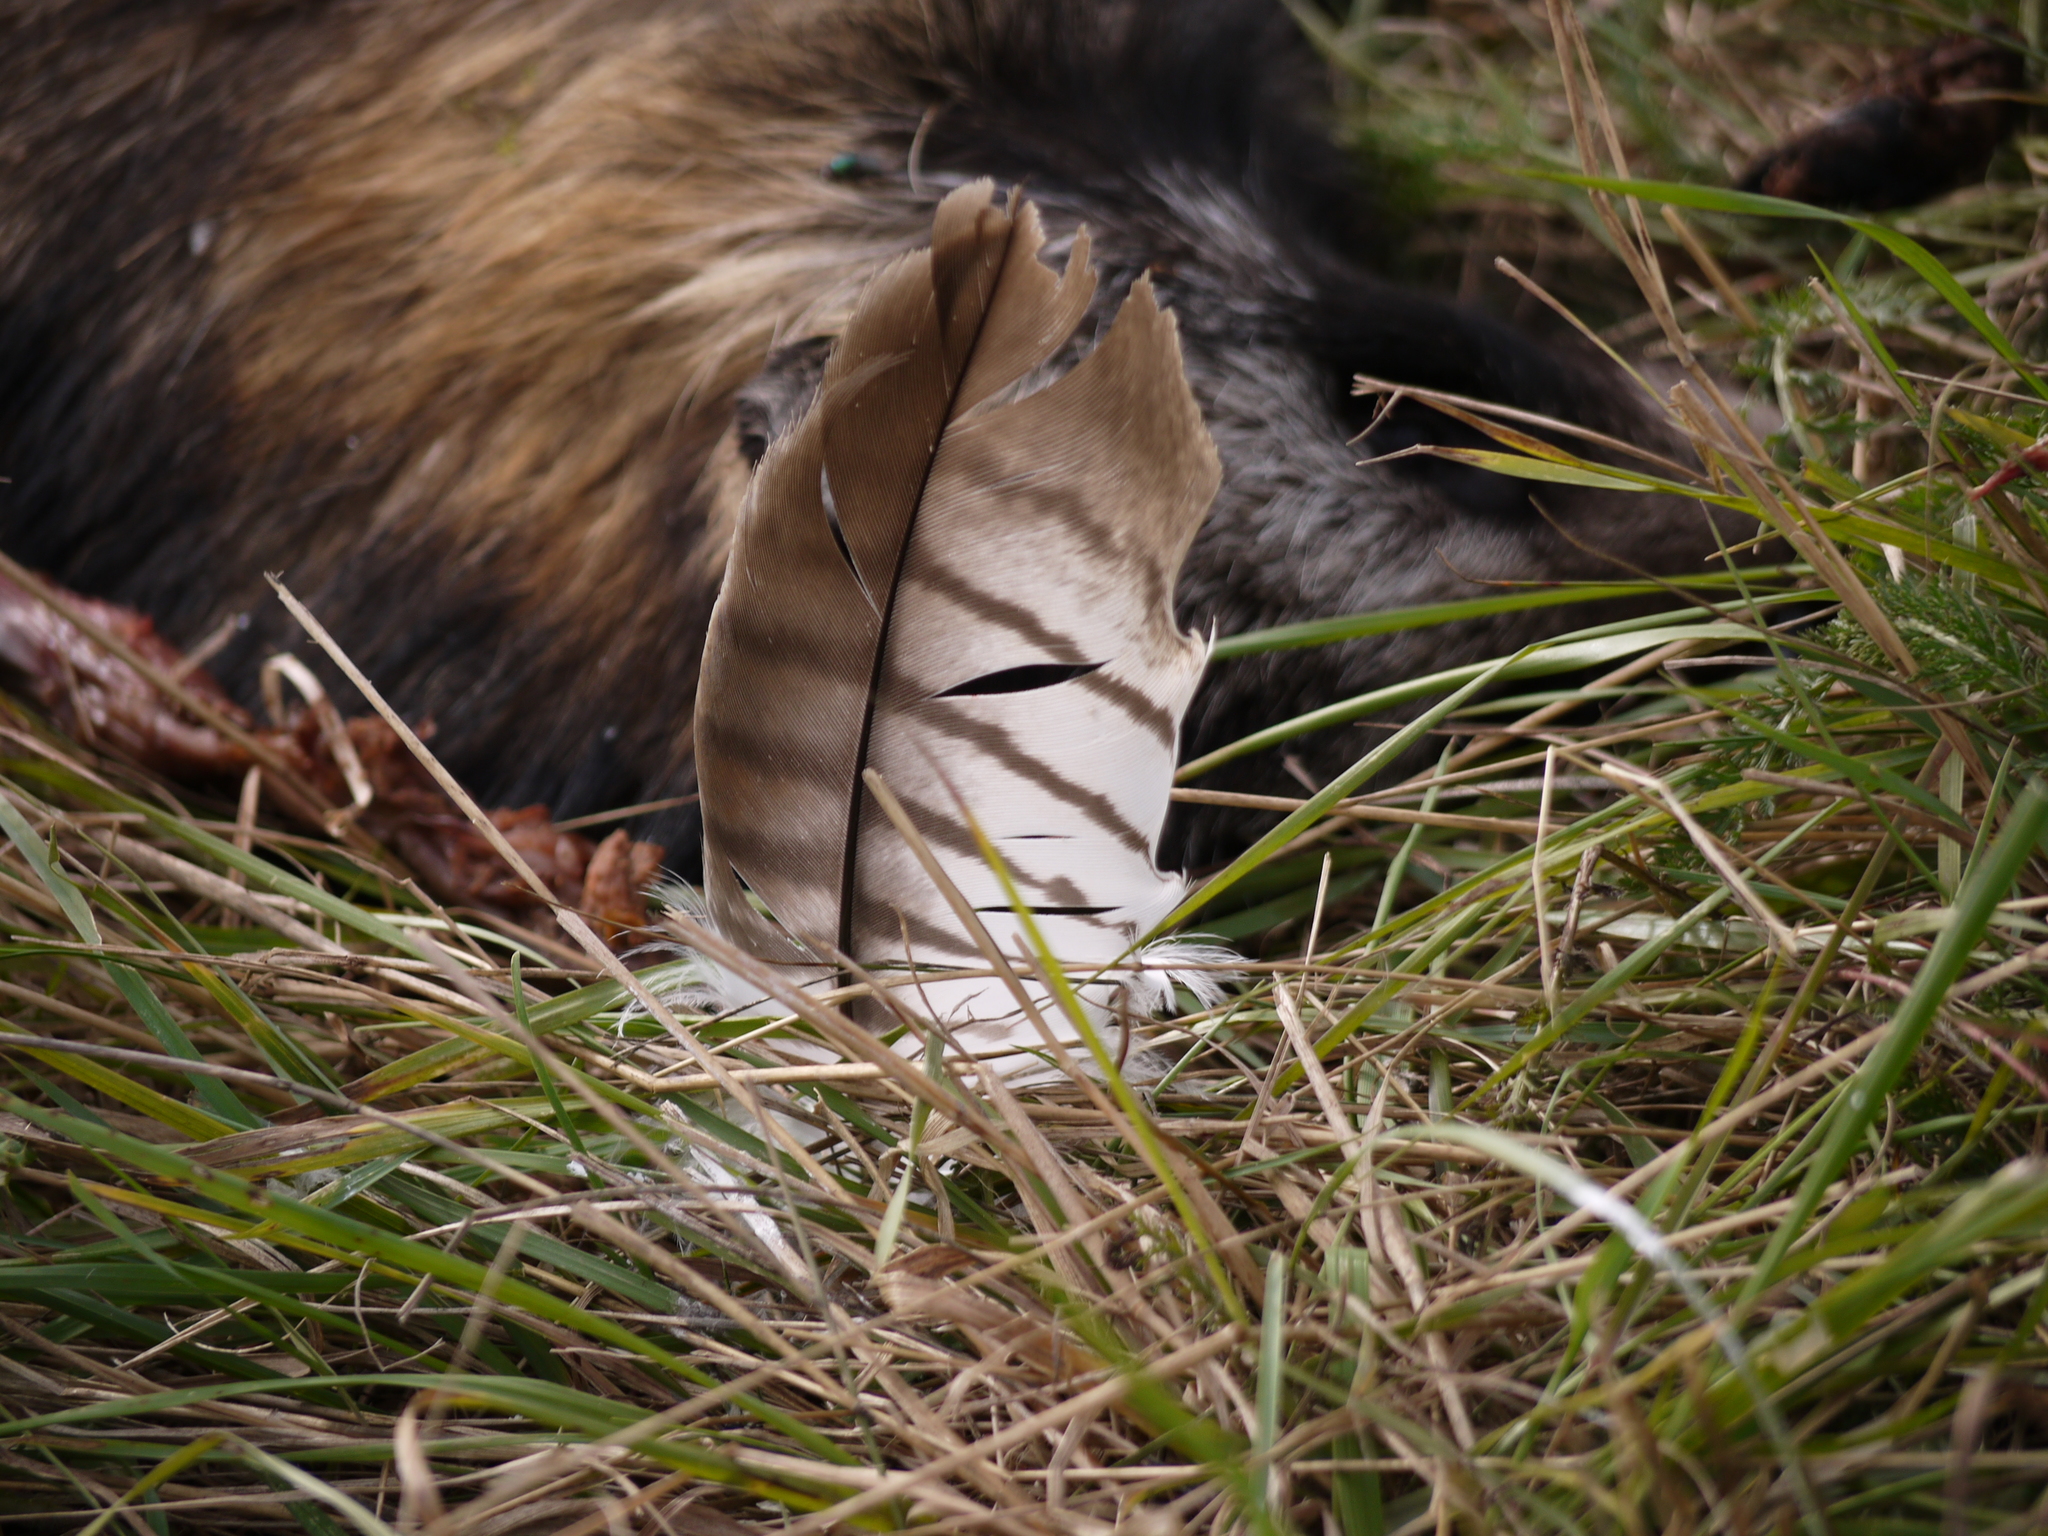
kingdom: Animalia
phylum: Chordata
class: Aves
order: Accipitriformes
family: Accipitridae
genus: Milvus
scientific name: Milvus milvus
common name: Red kite
